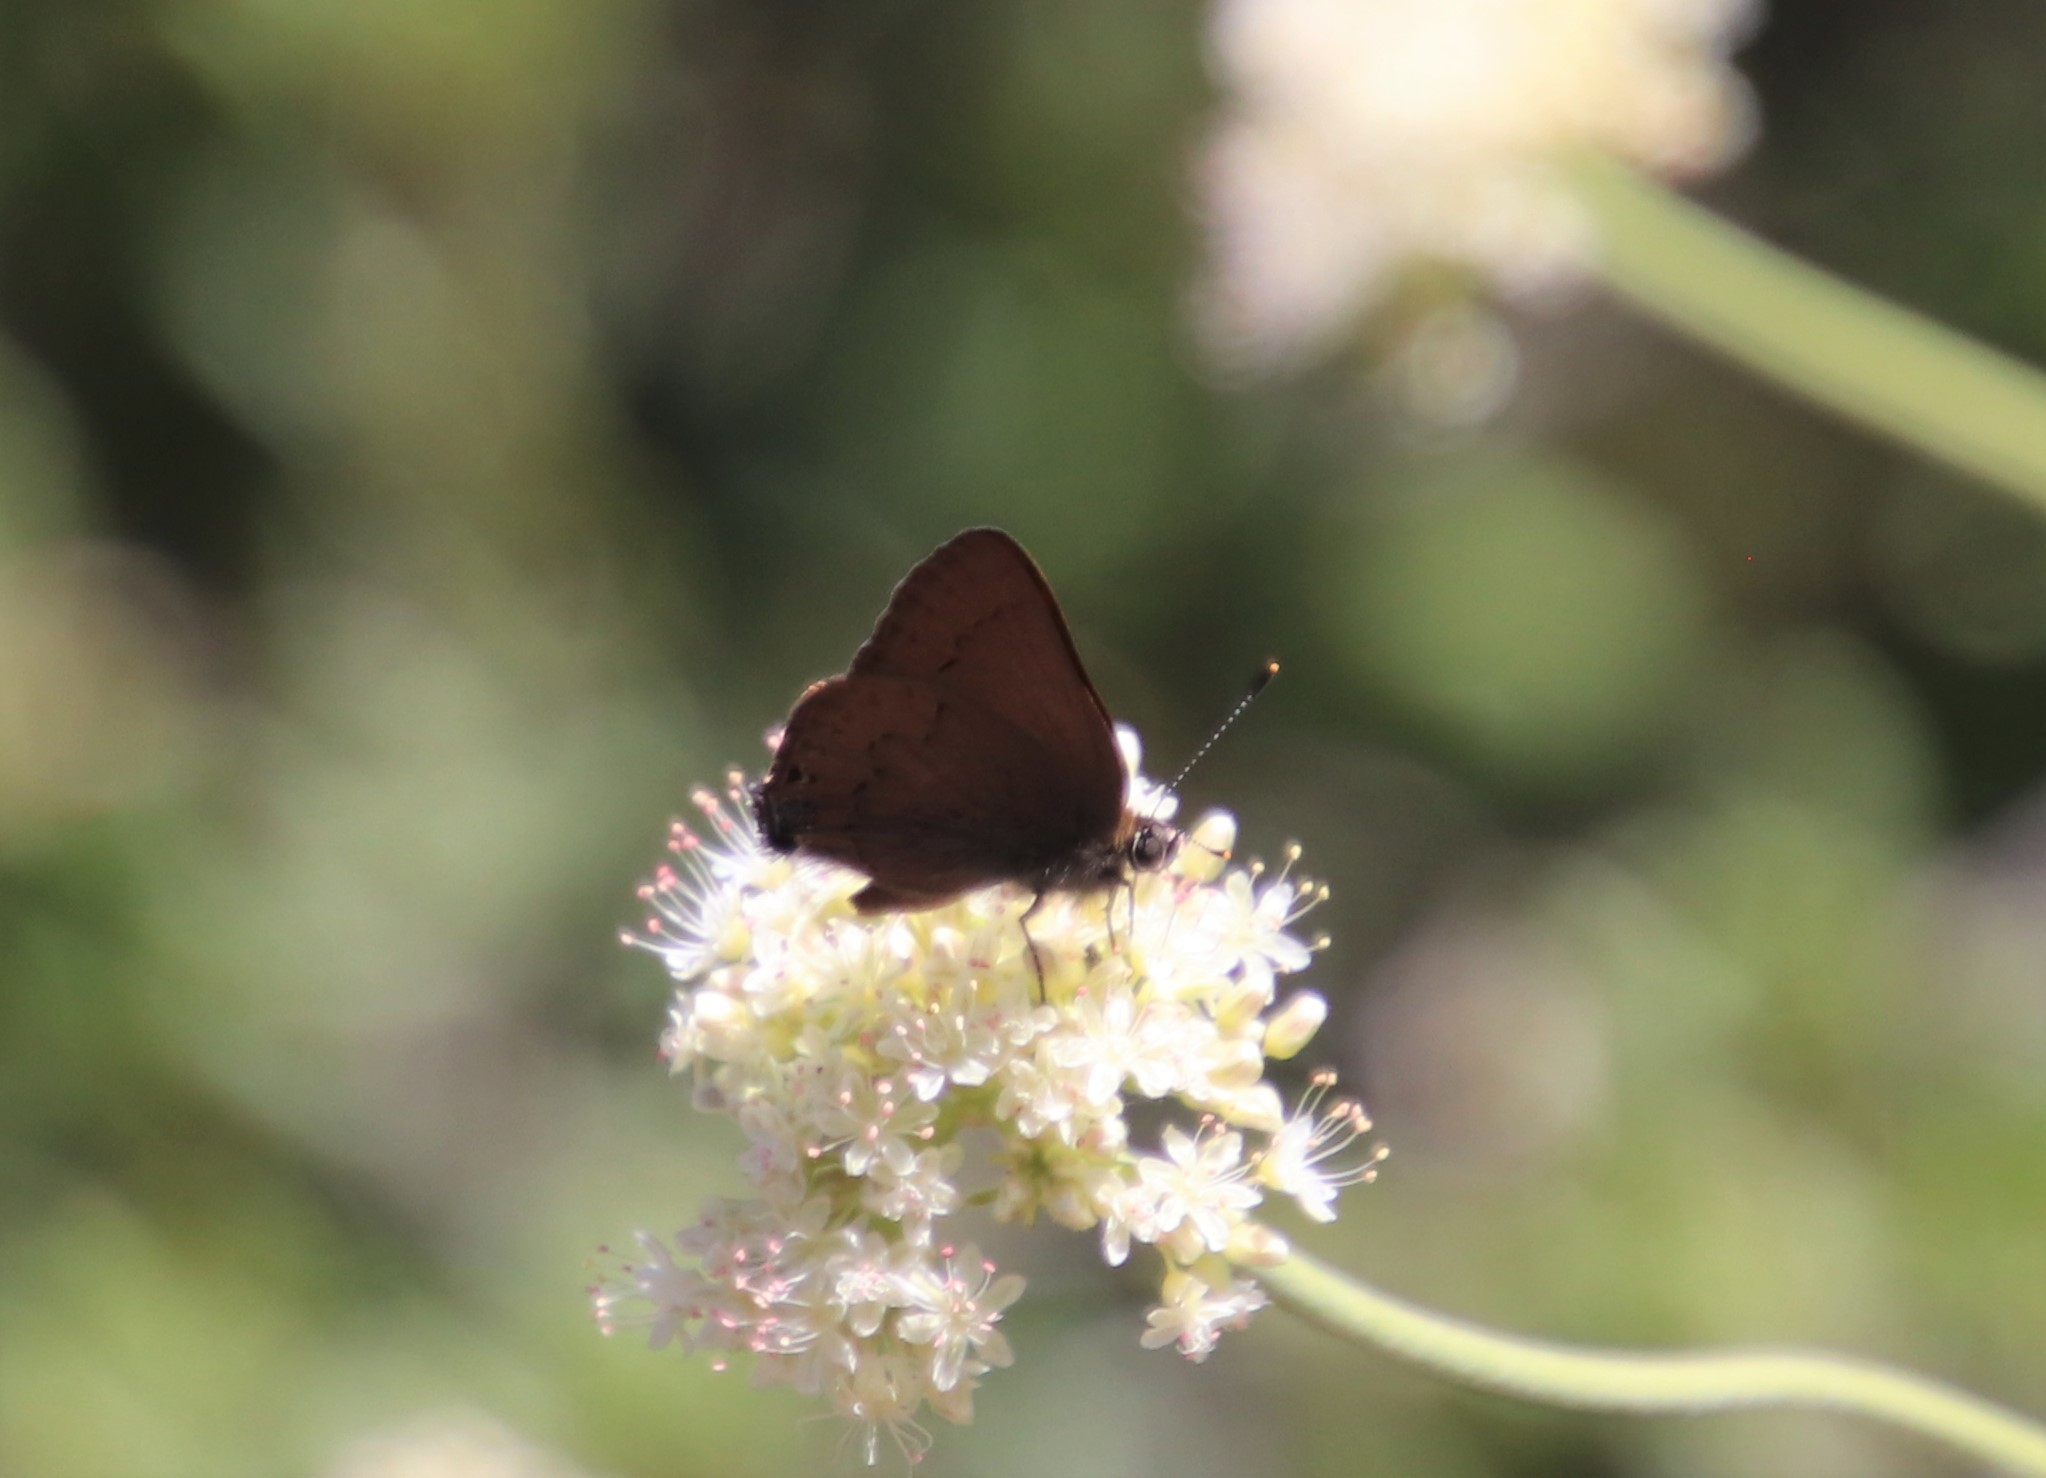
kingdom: Animalia
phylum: Arthropoda
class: Insecta
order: Lepidoptera
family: Lycaenidae
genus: Incisalia
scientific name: Incisalia irioides
